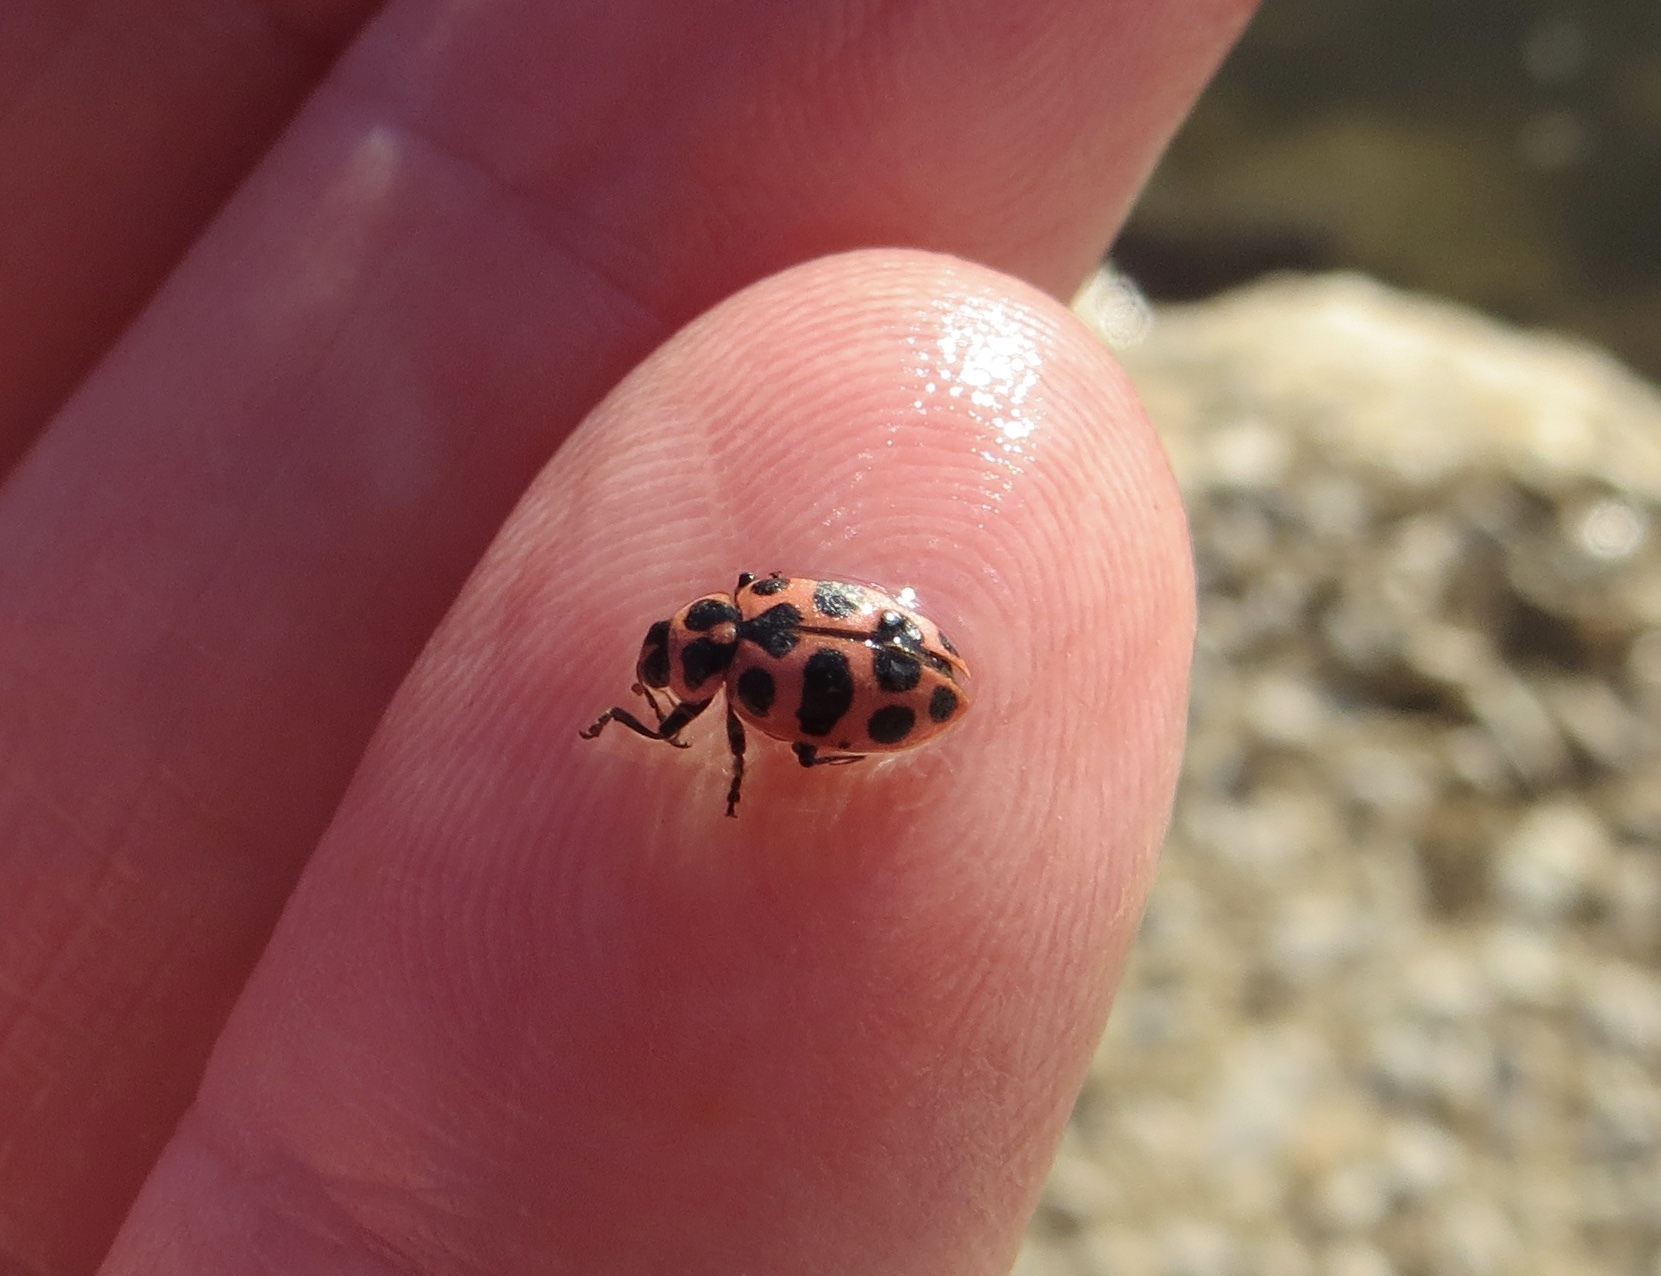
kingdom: Animalia
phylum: Arthropoda
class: Insecta
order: Coleoptera
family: Coccinellidae
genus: Coleomegilla
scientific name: Coleomegilla maculata
